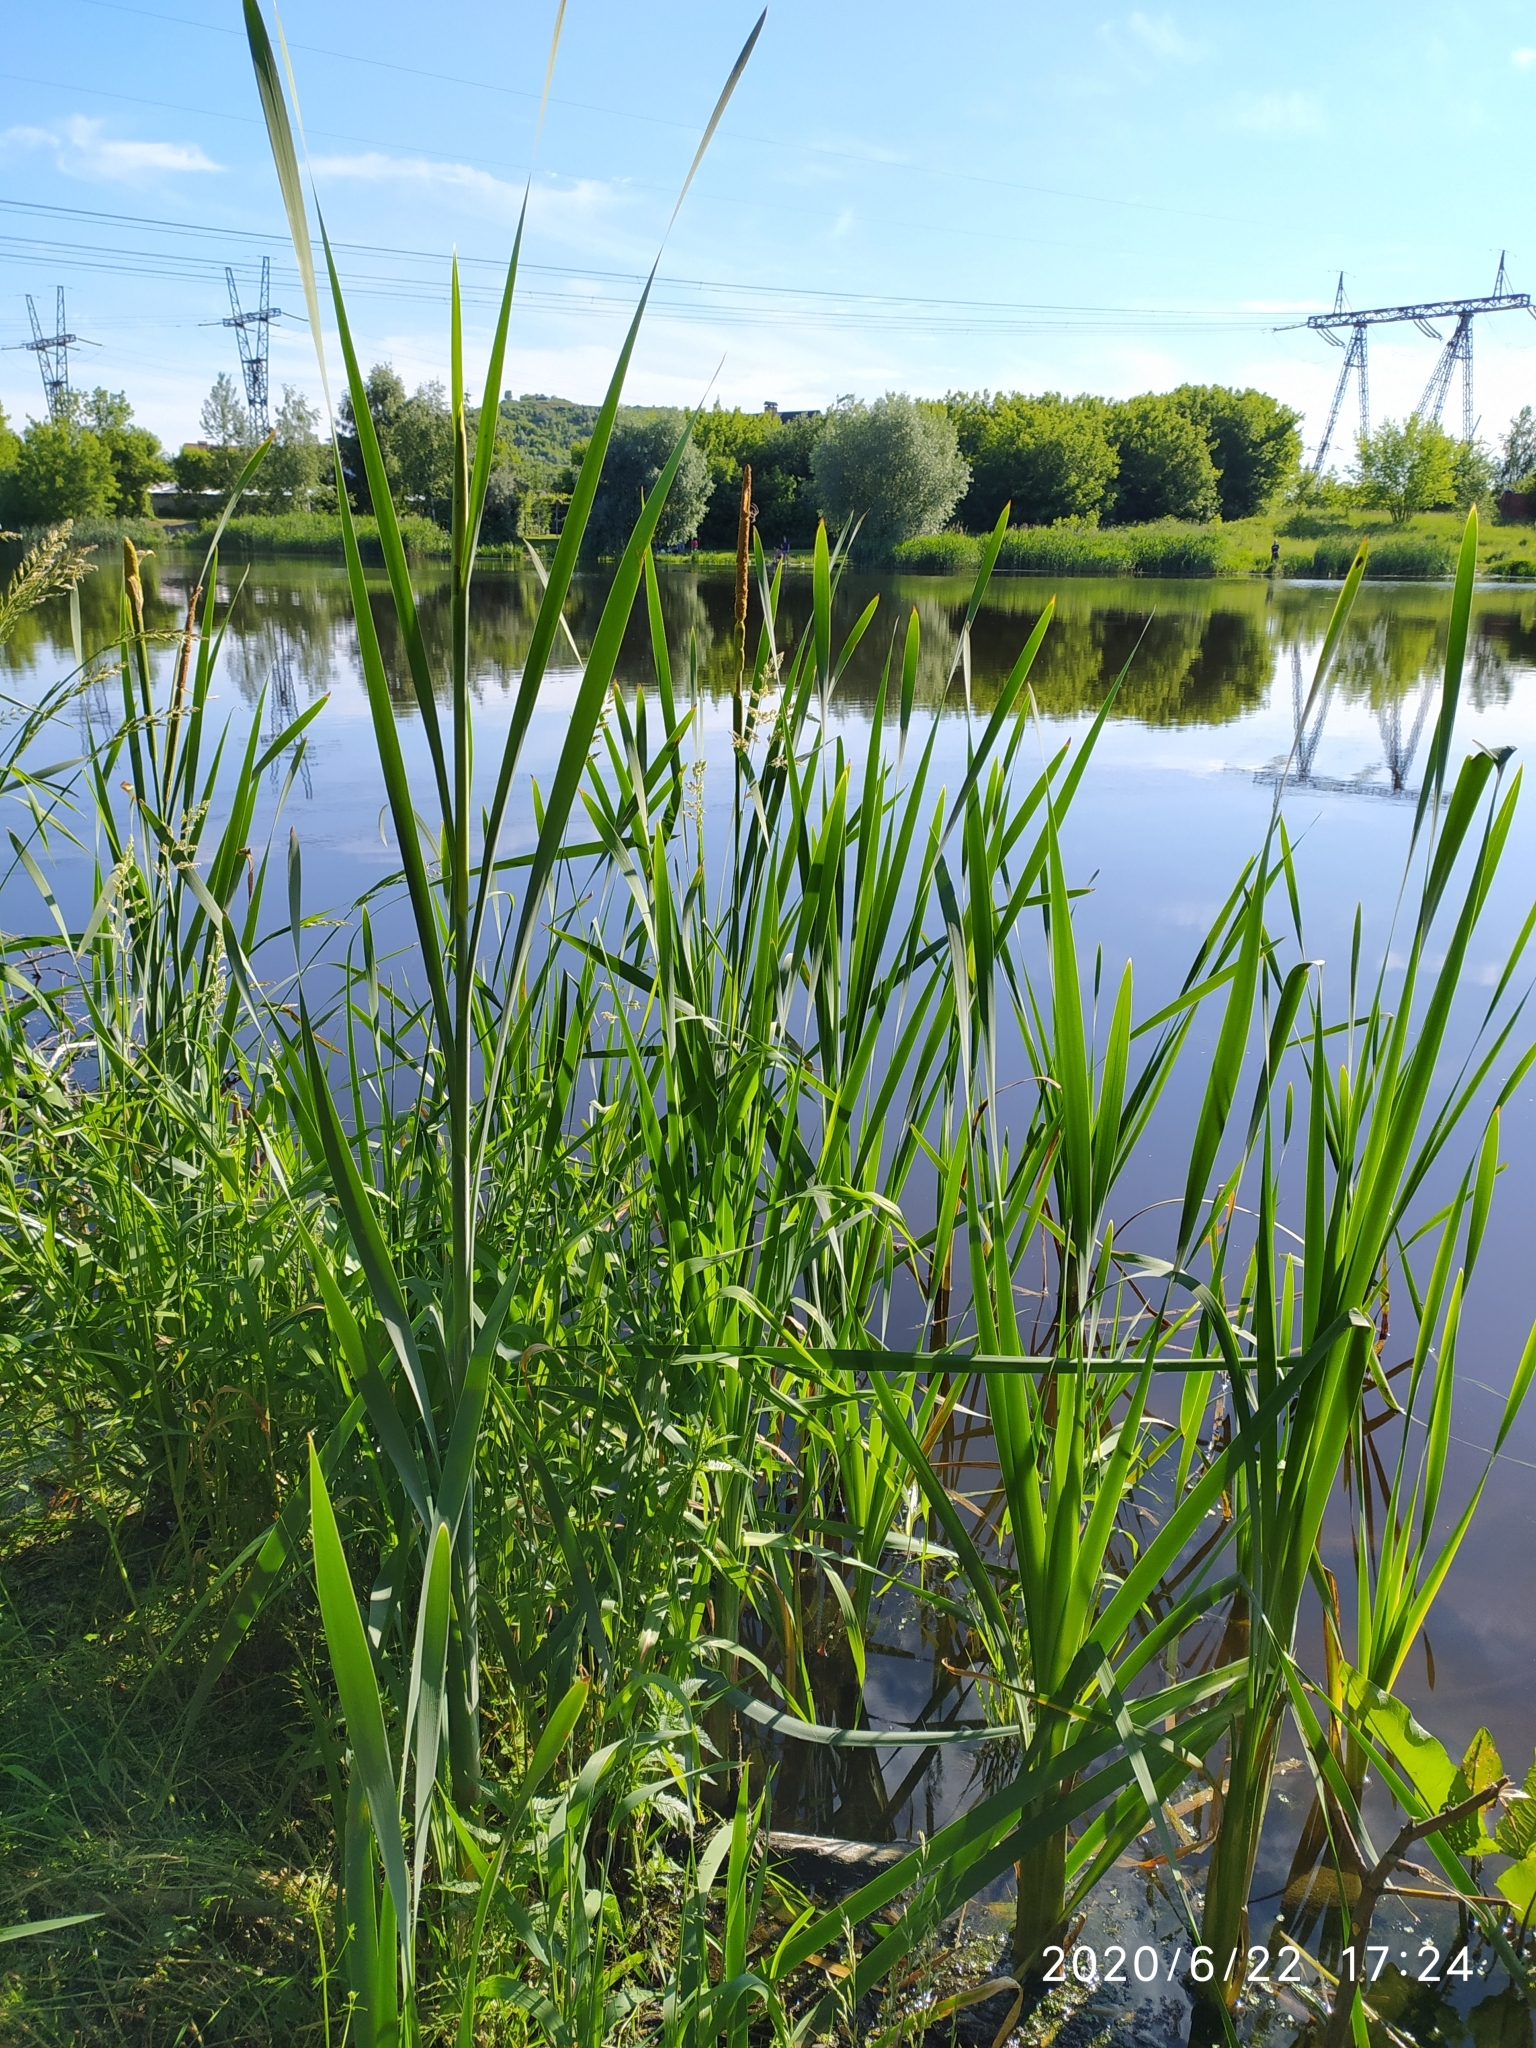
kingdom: Plantae
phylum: Tracheophyta
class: Liliopsida
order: Poales
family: Typhaceae
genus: Typha
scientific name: Typha latifolia
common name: Broadleaf cattail
